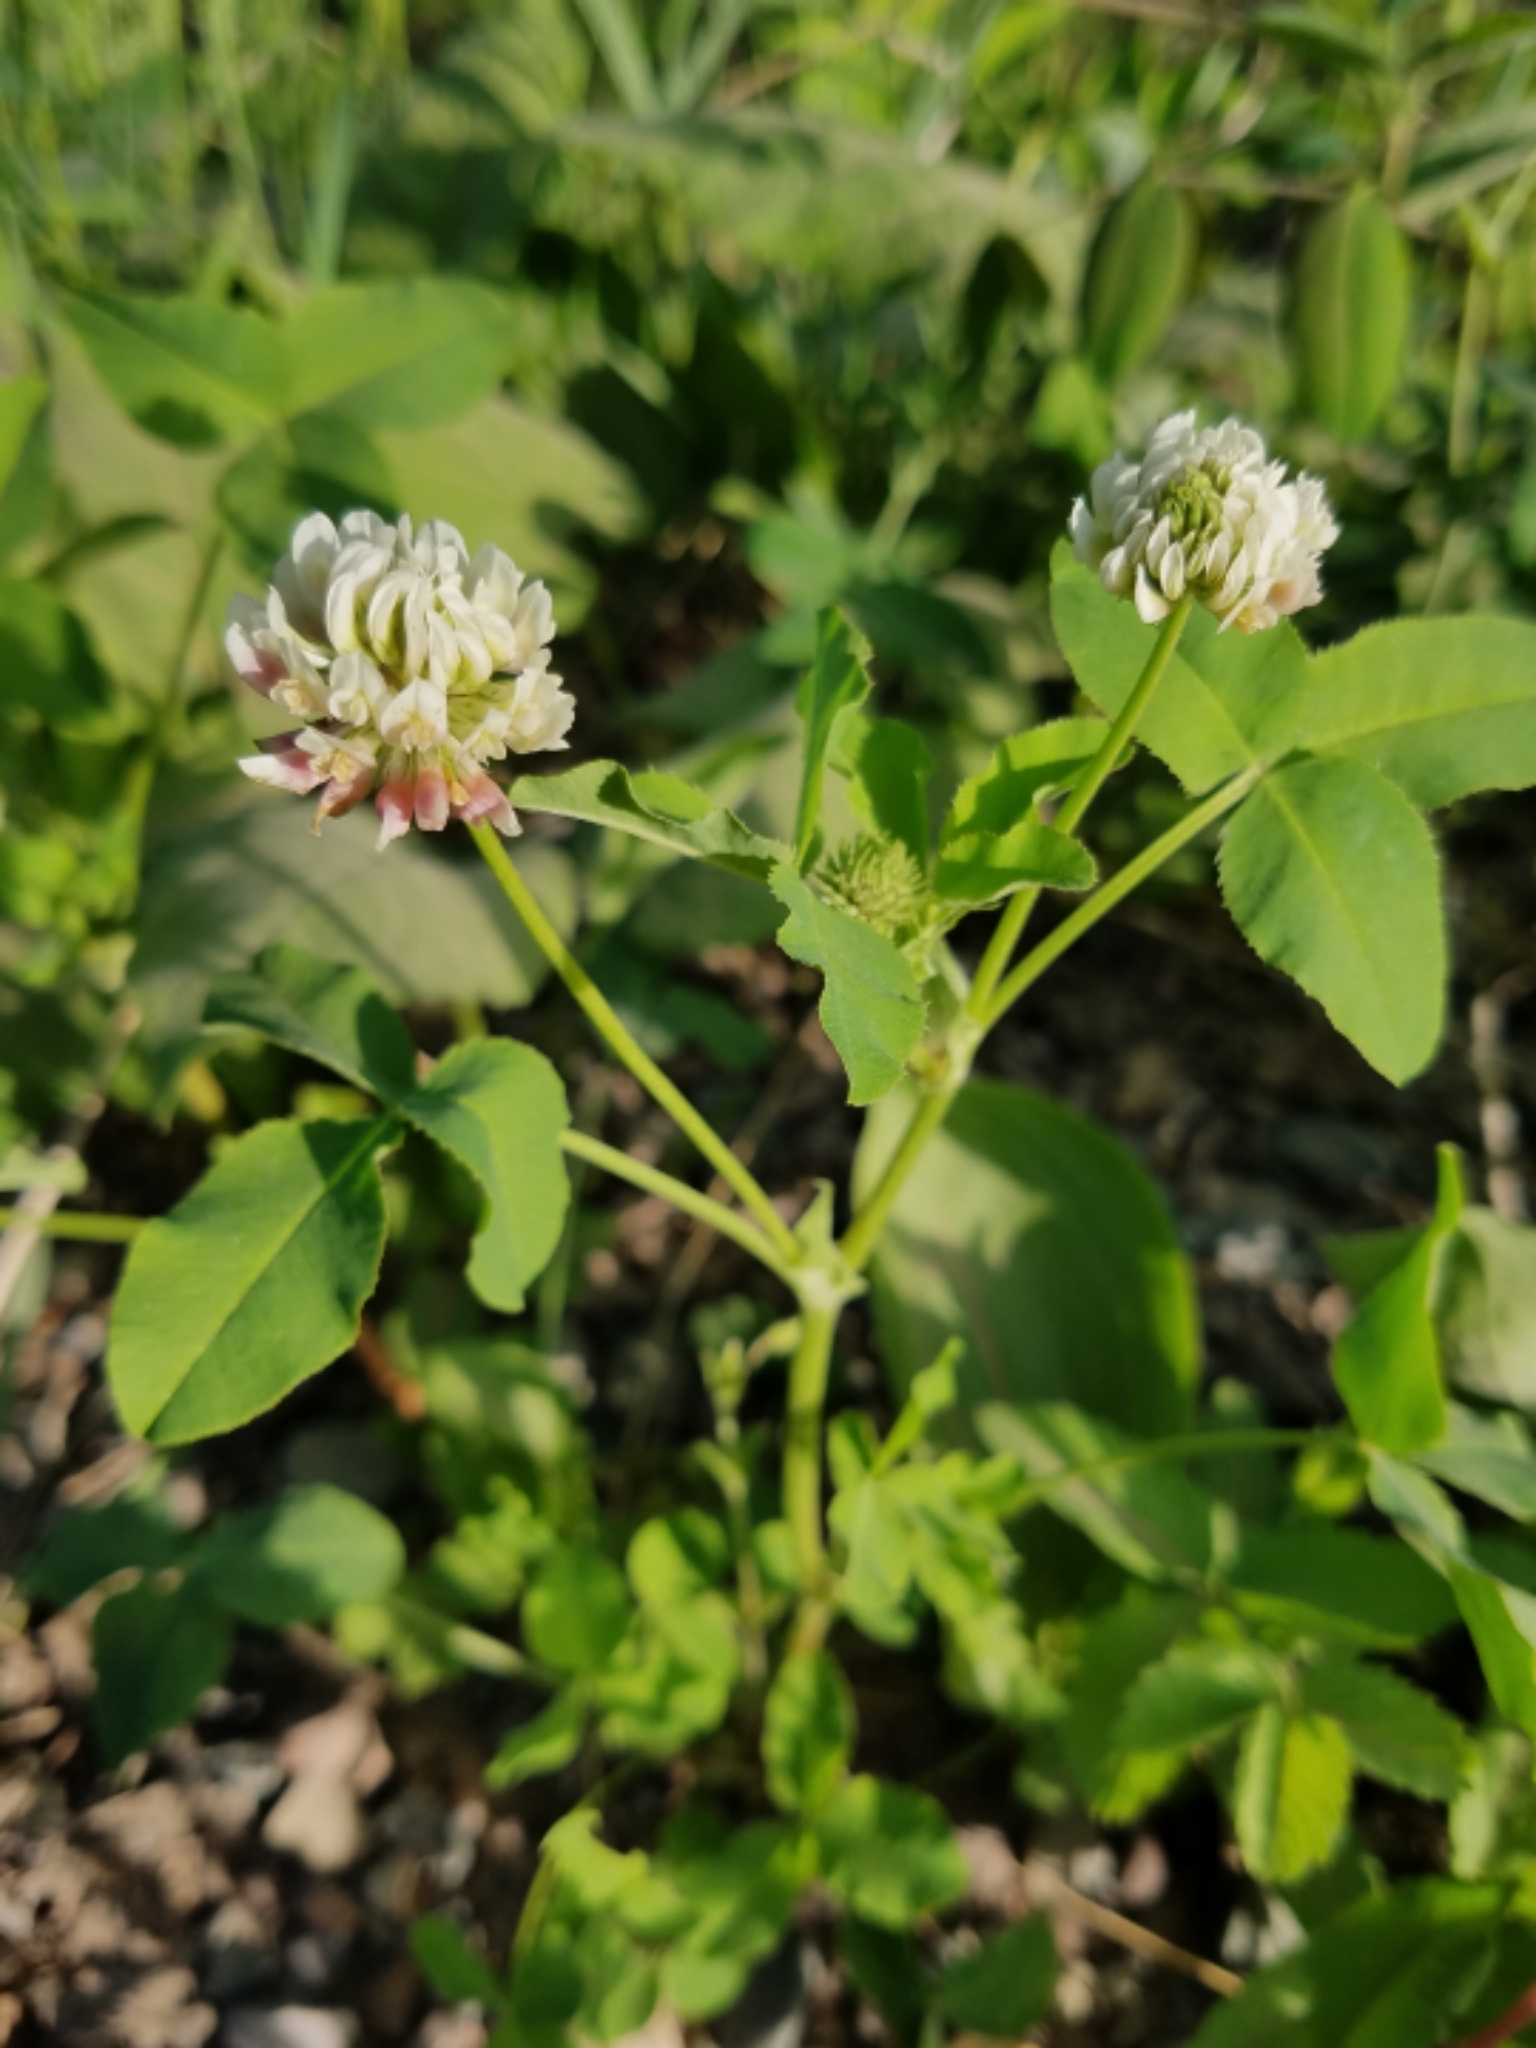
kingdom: Plantae
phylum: Tracheophyta
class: Magnoliopsida
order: Fabales
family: Fabaceae
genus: Trifolium
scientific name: Trifolium hybridum
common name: Alsike clover
